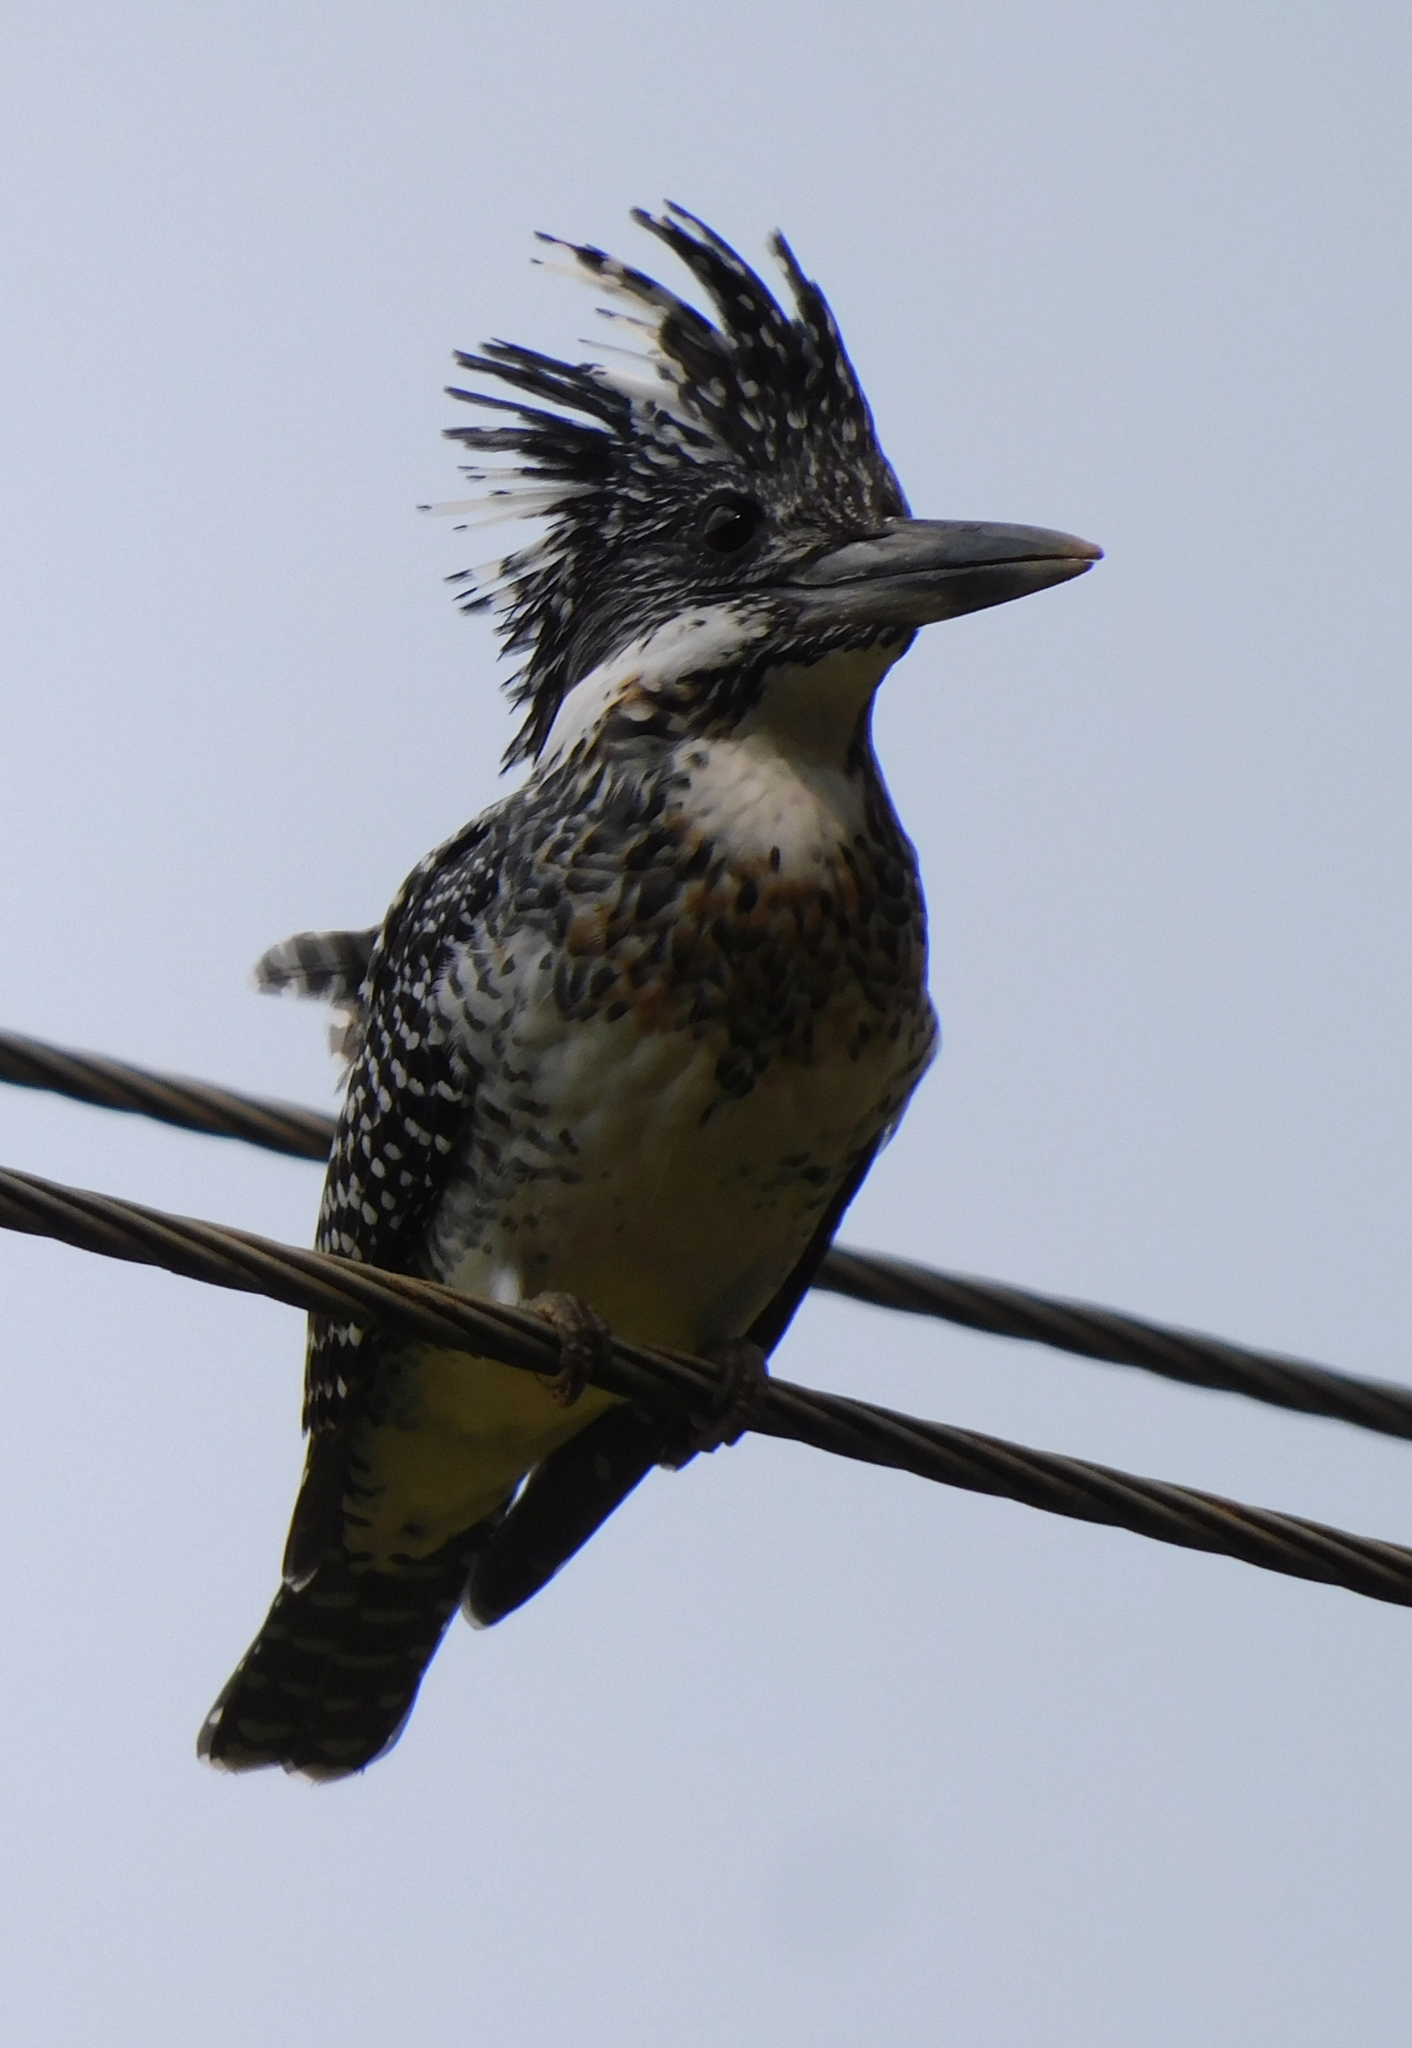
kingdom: Animalia
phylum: Chordata
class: Aves
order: Coraciiformes
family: Alcedinidae
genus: Megaceryle
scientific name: Megaceryle lugubris
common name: Crested kingfisher
